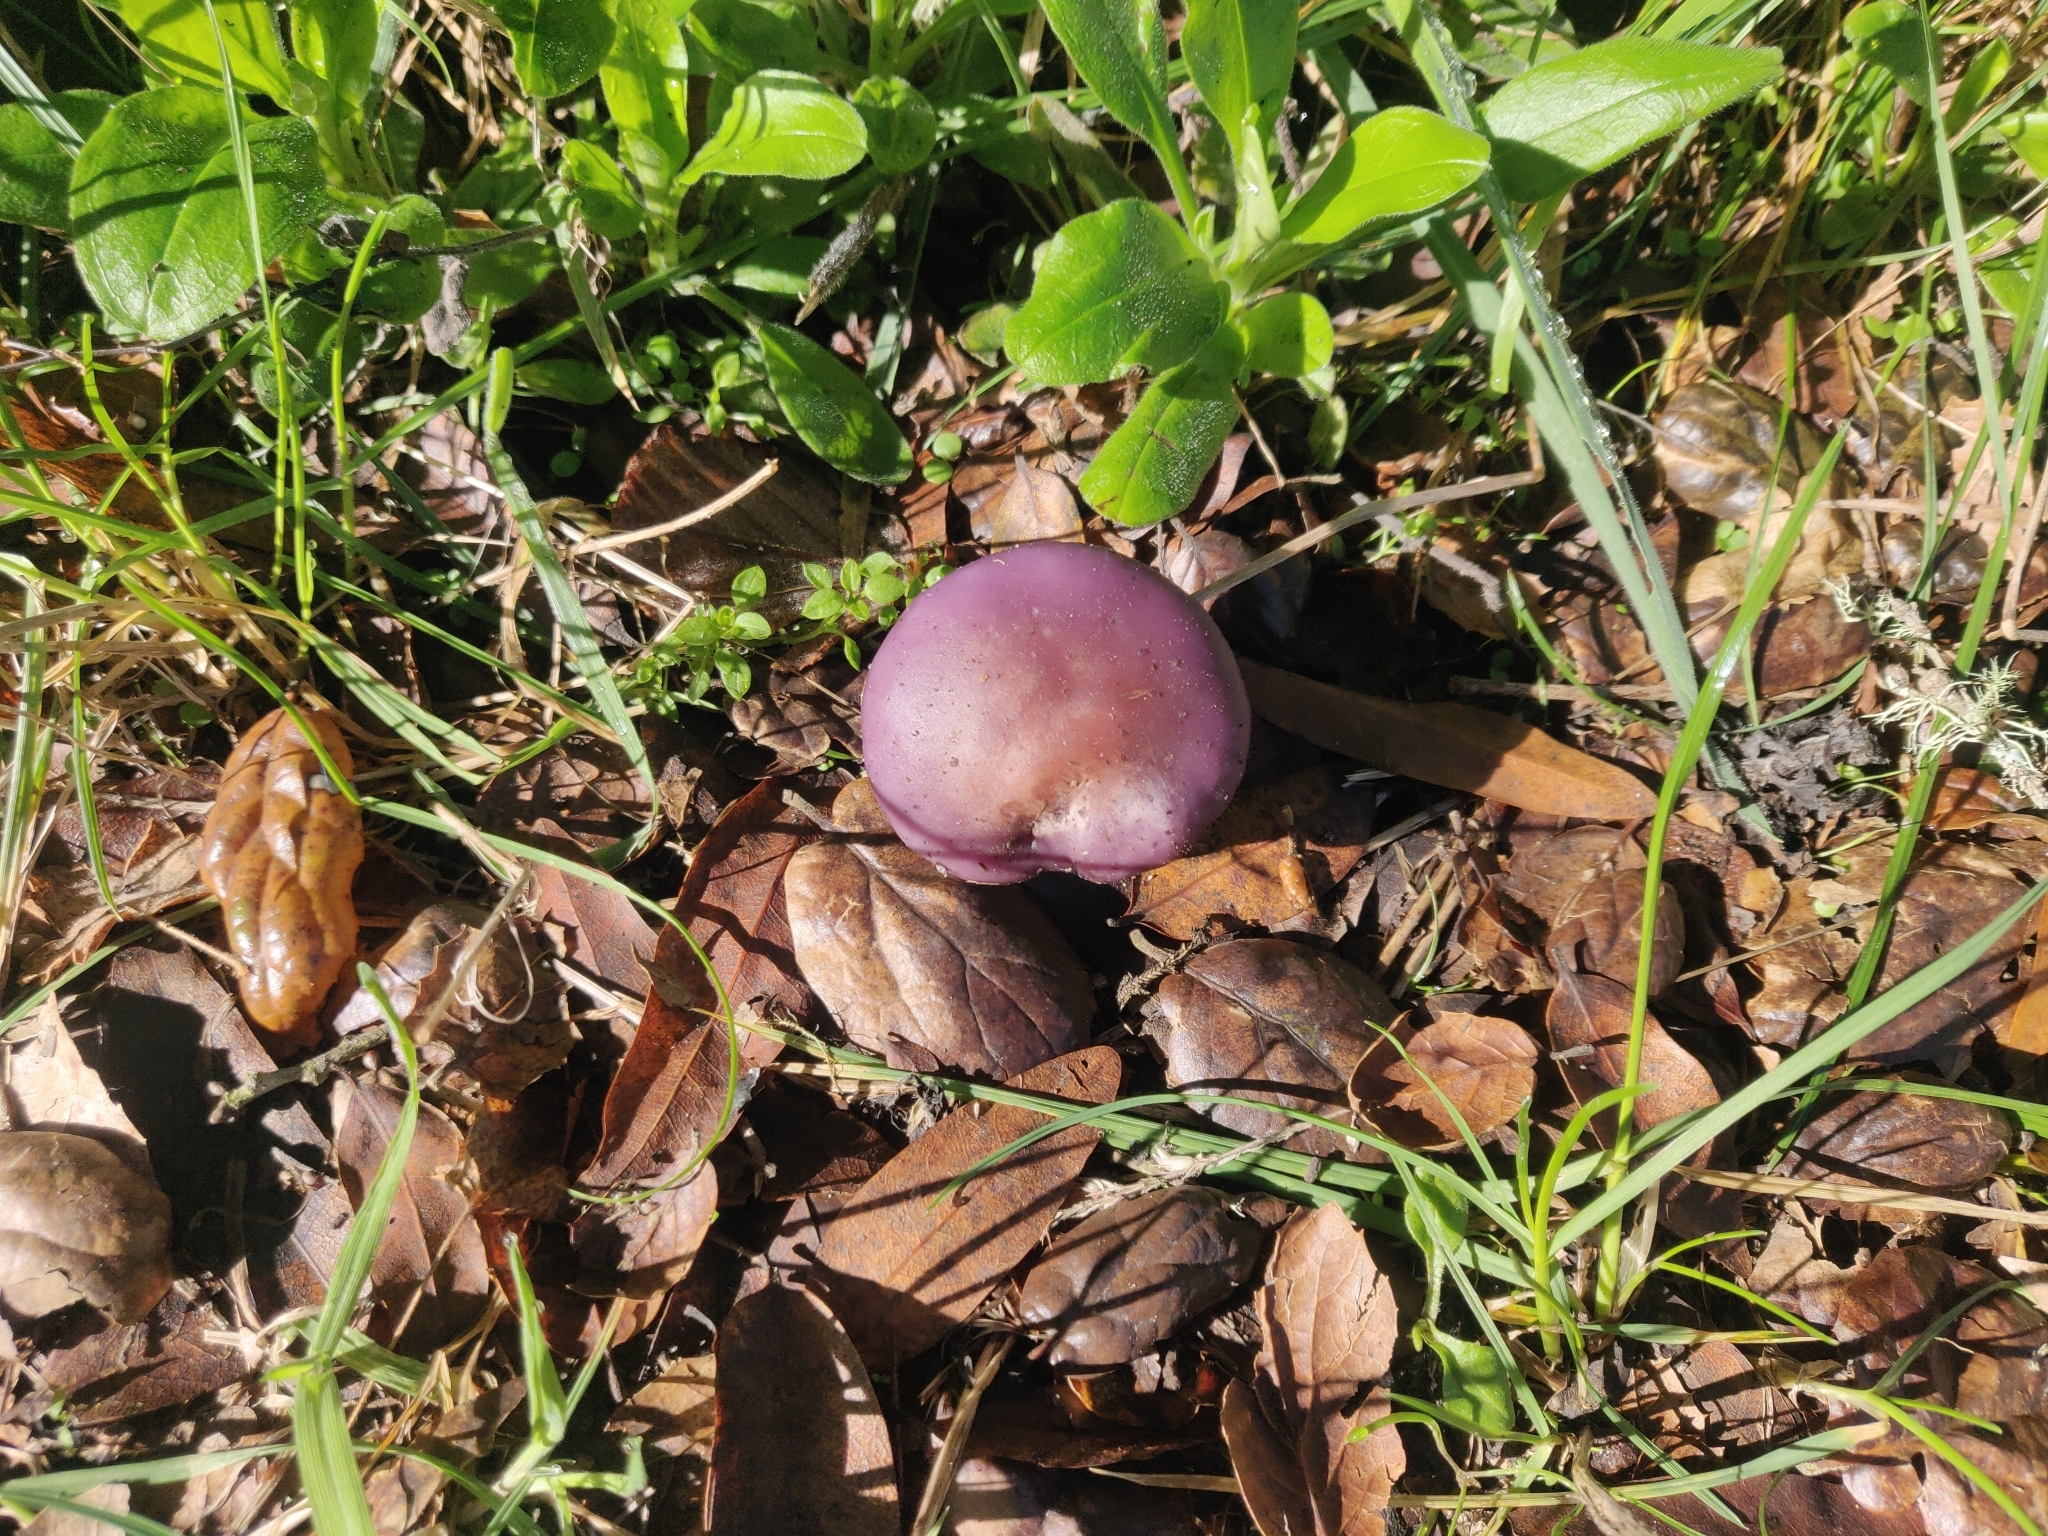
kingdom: Fungi
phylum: Basidiomycota
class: Agaricomycetes
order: Agaricales
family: Tricholomataceae
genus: Collybia
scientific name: Collybia
